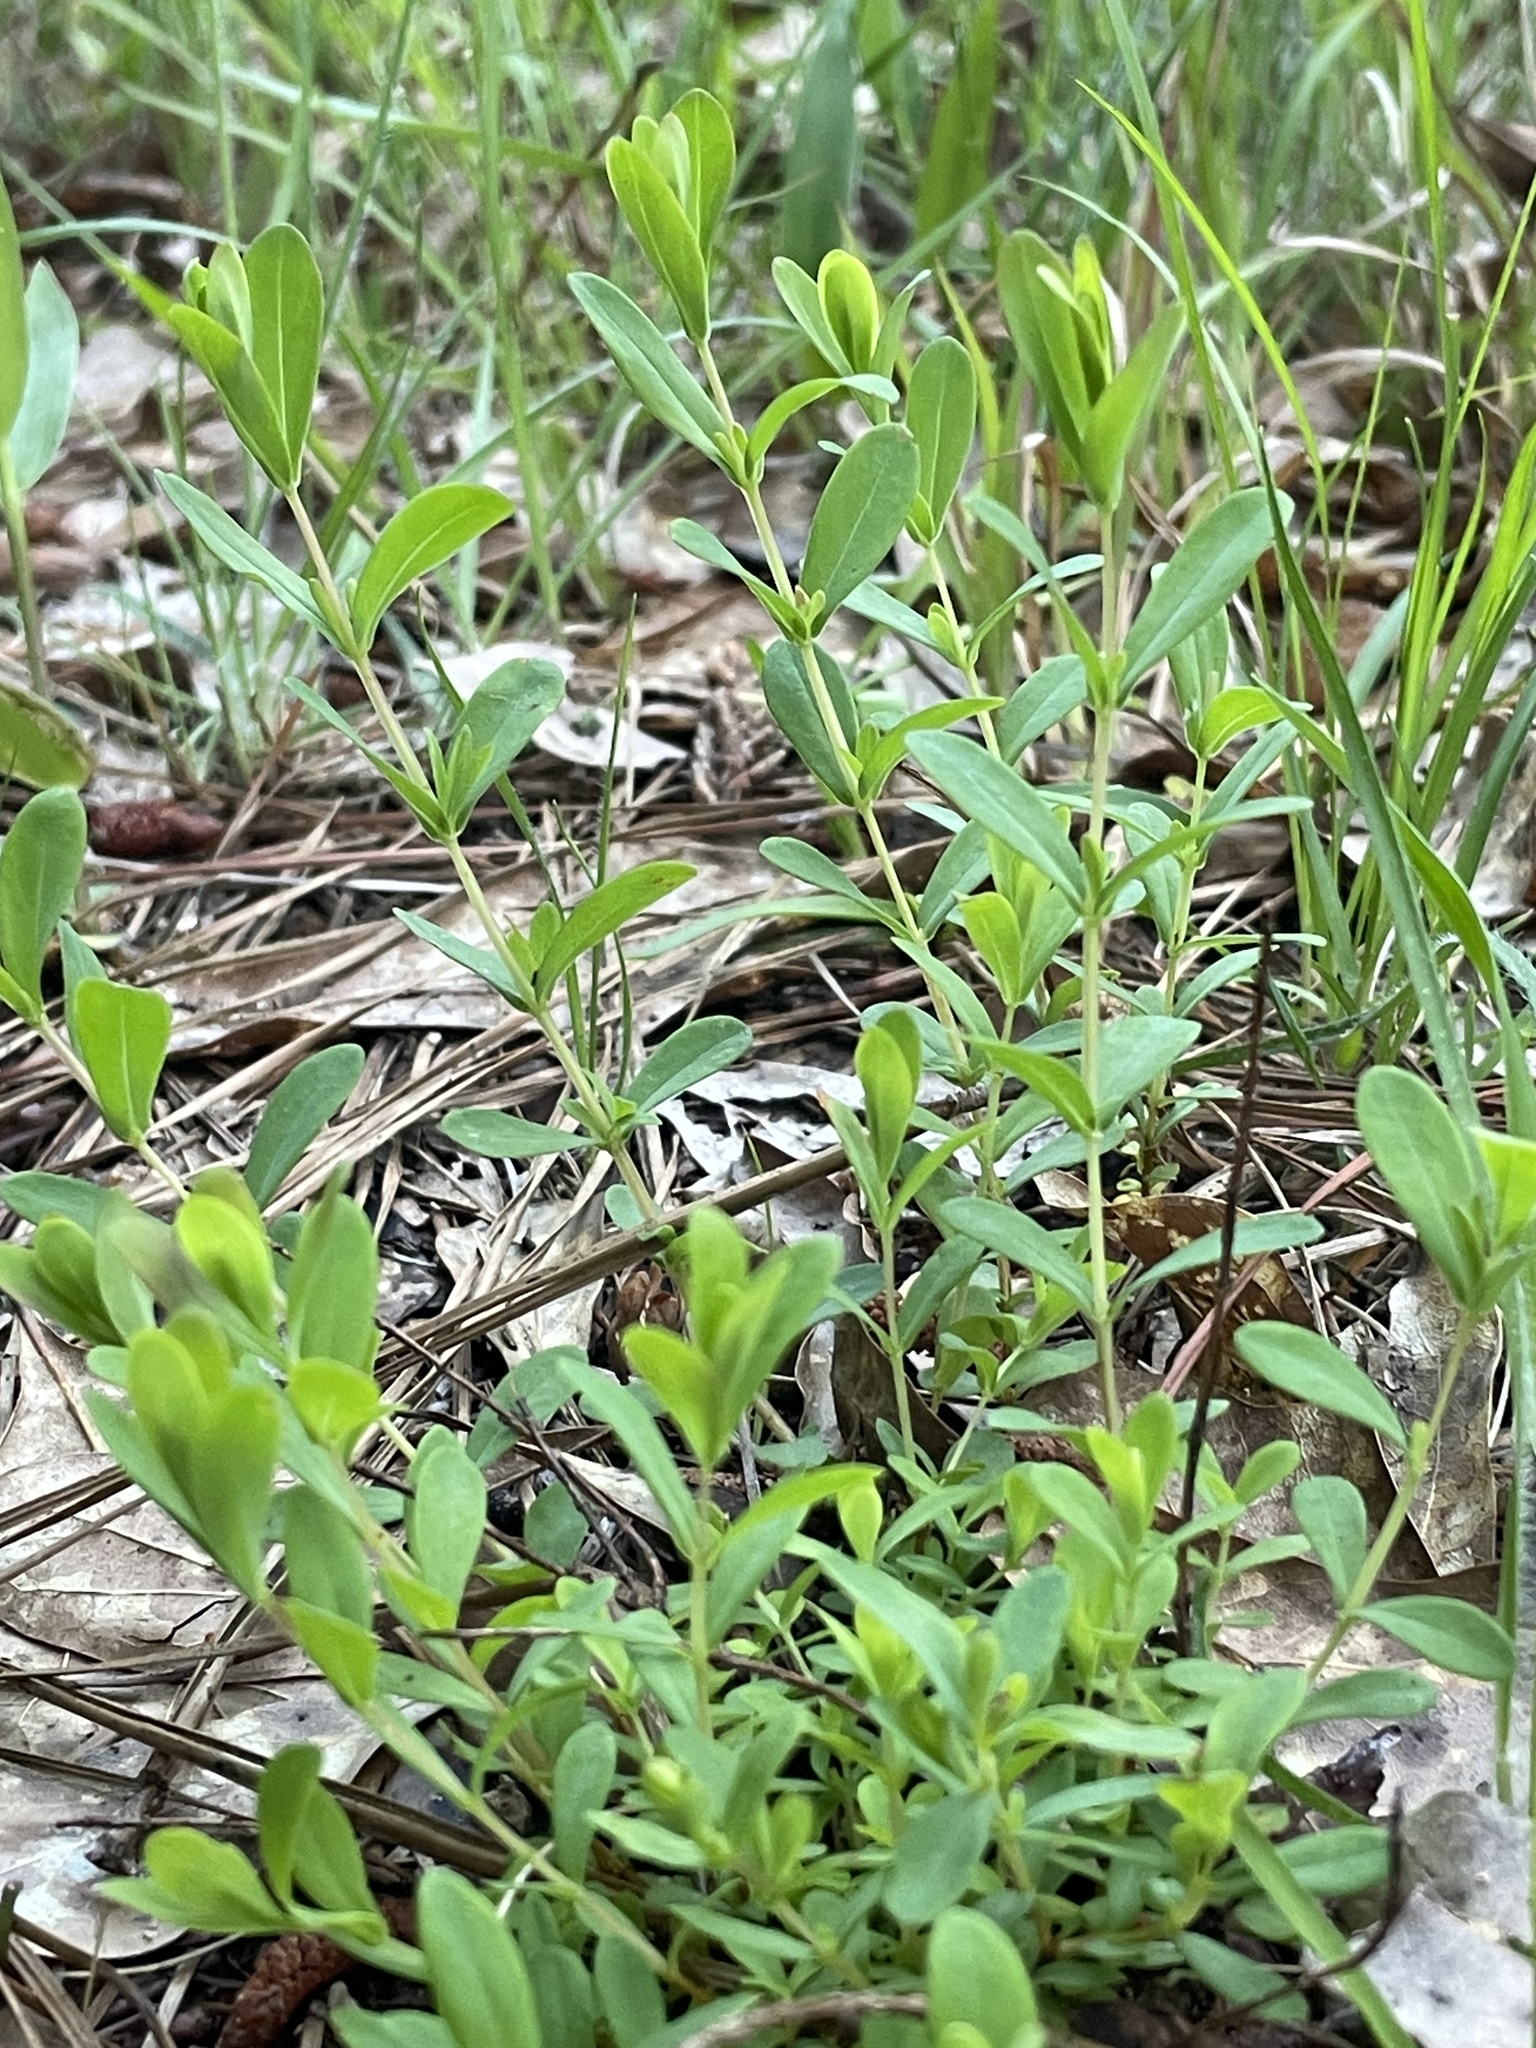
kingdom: Plantae
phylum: Tracheophyta
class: Magnoliopsida
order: Malpighiales
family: Hypericaceae
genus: Hypericum
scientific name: Hypericum hypericoides
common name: St. andrew's cross
